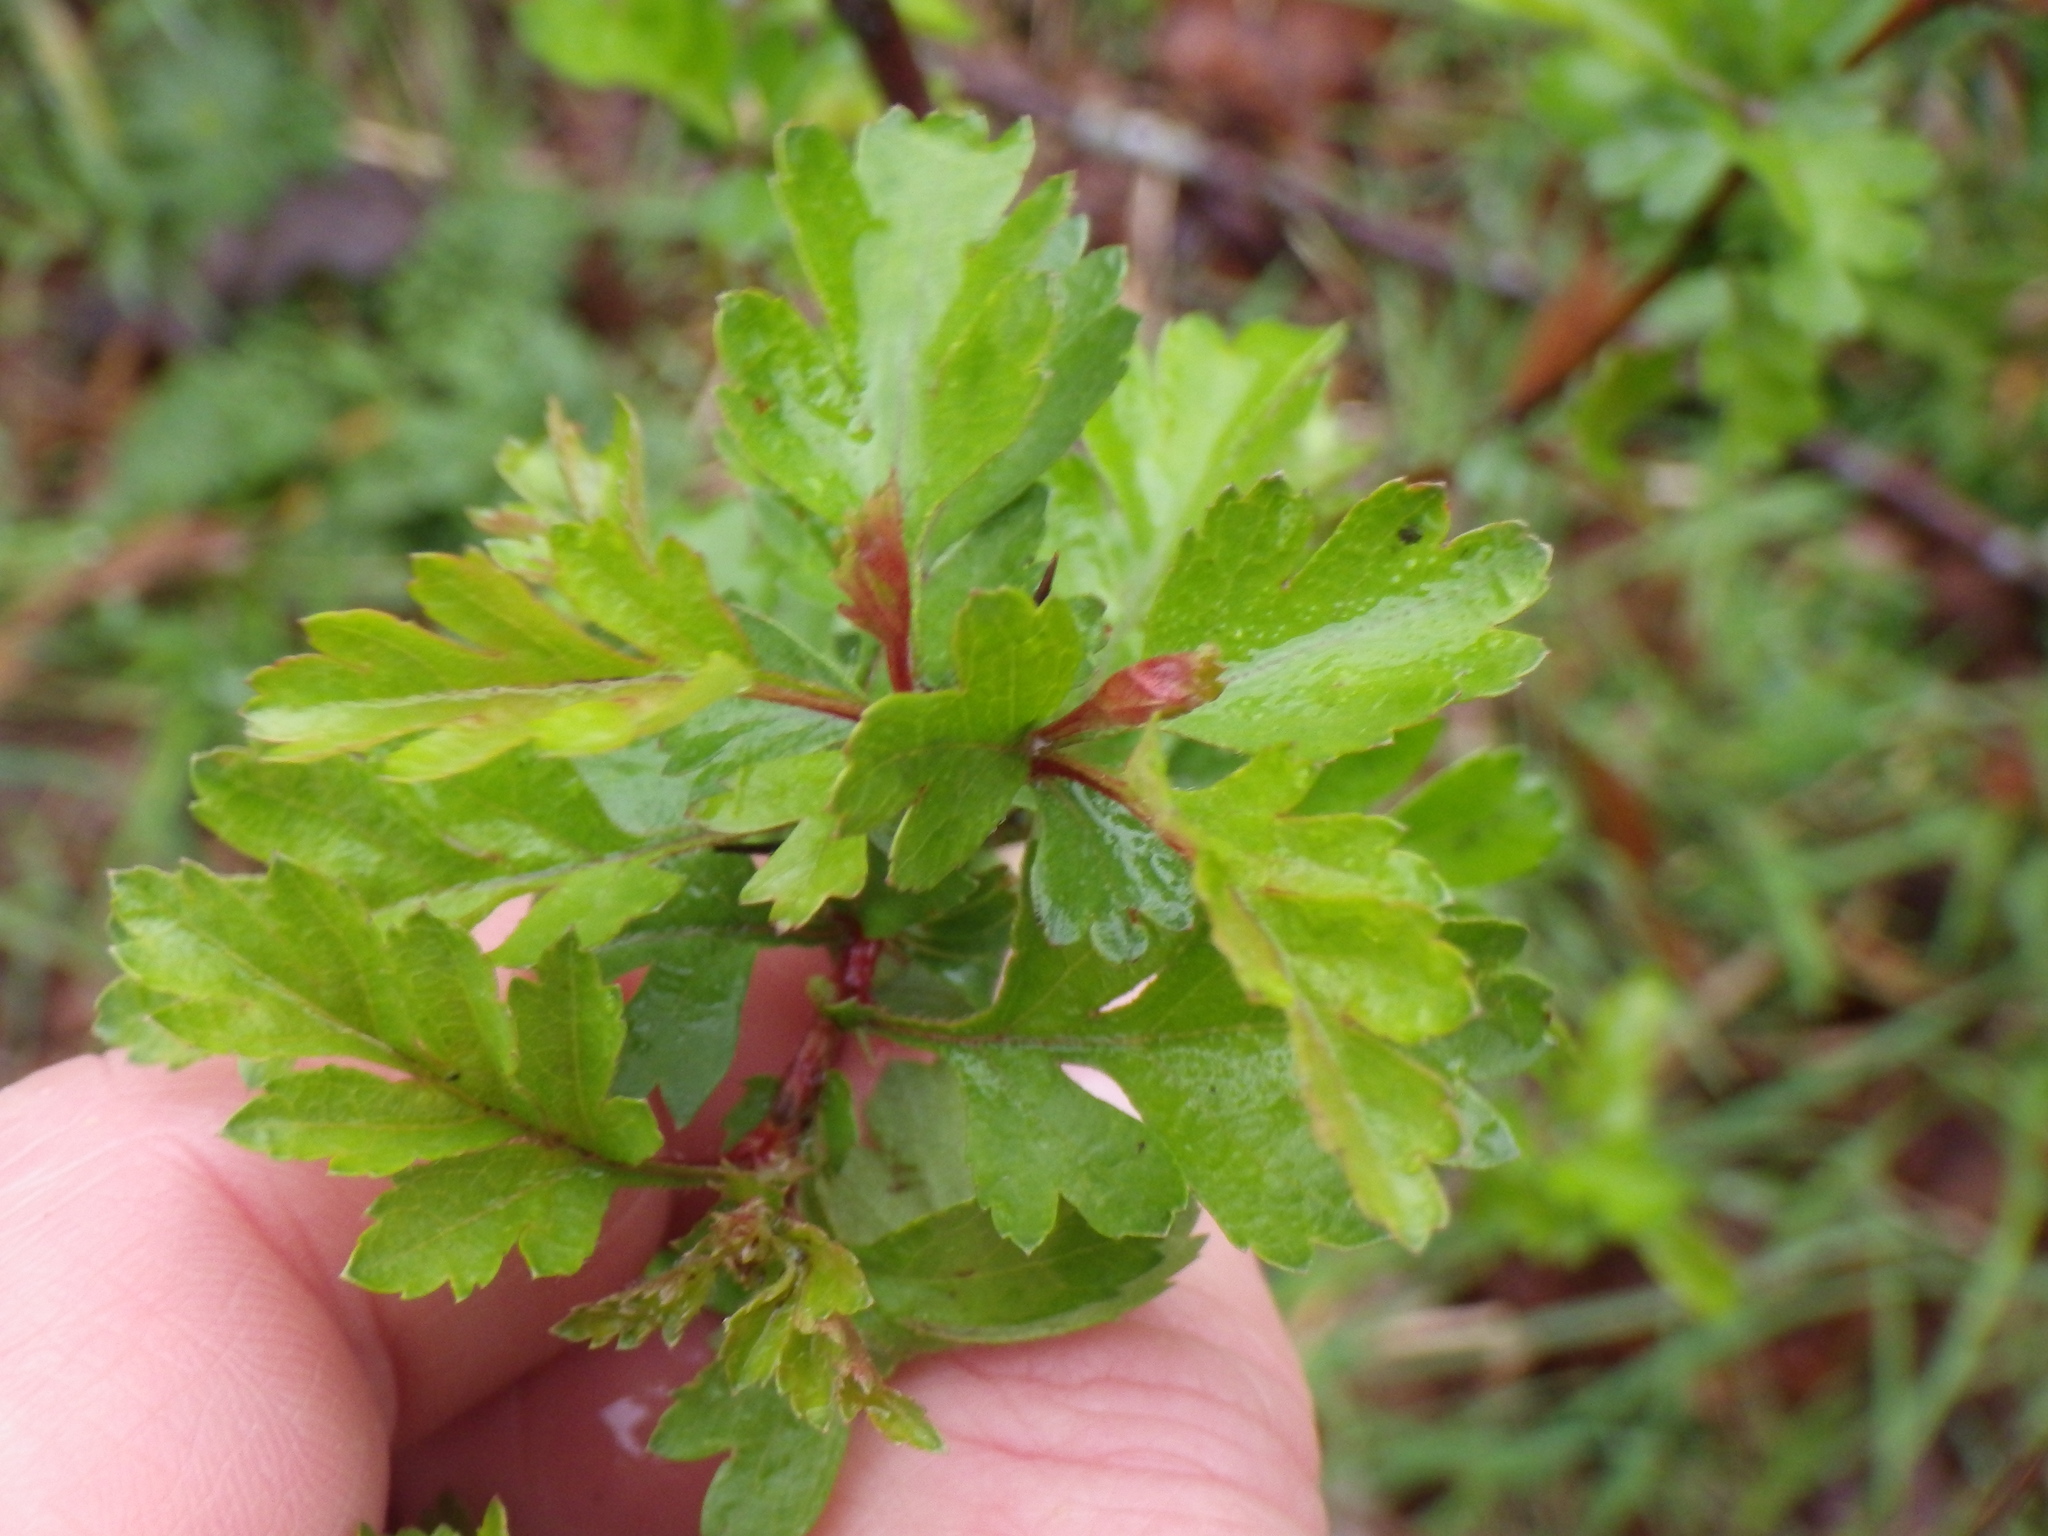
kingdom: Plantae
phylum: Tracheophyta
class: Magnoliopsida
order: Rosales
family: Rosaceae
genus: Crataegus
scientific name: Crataegus monogyna
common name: Hawthorn
